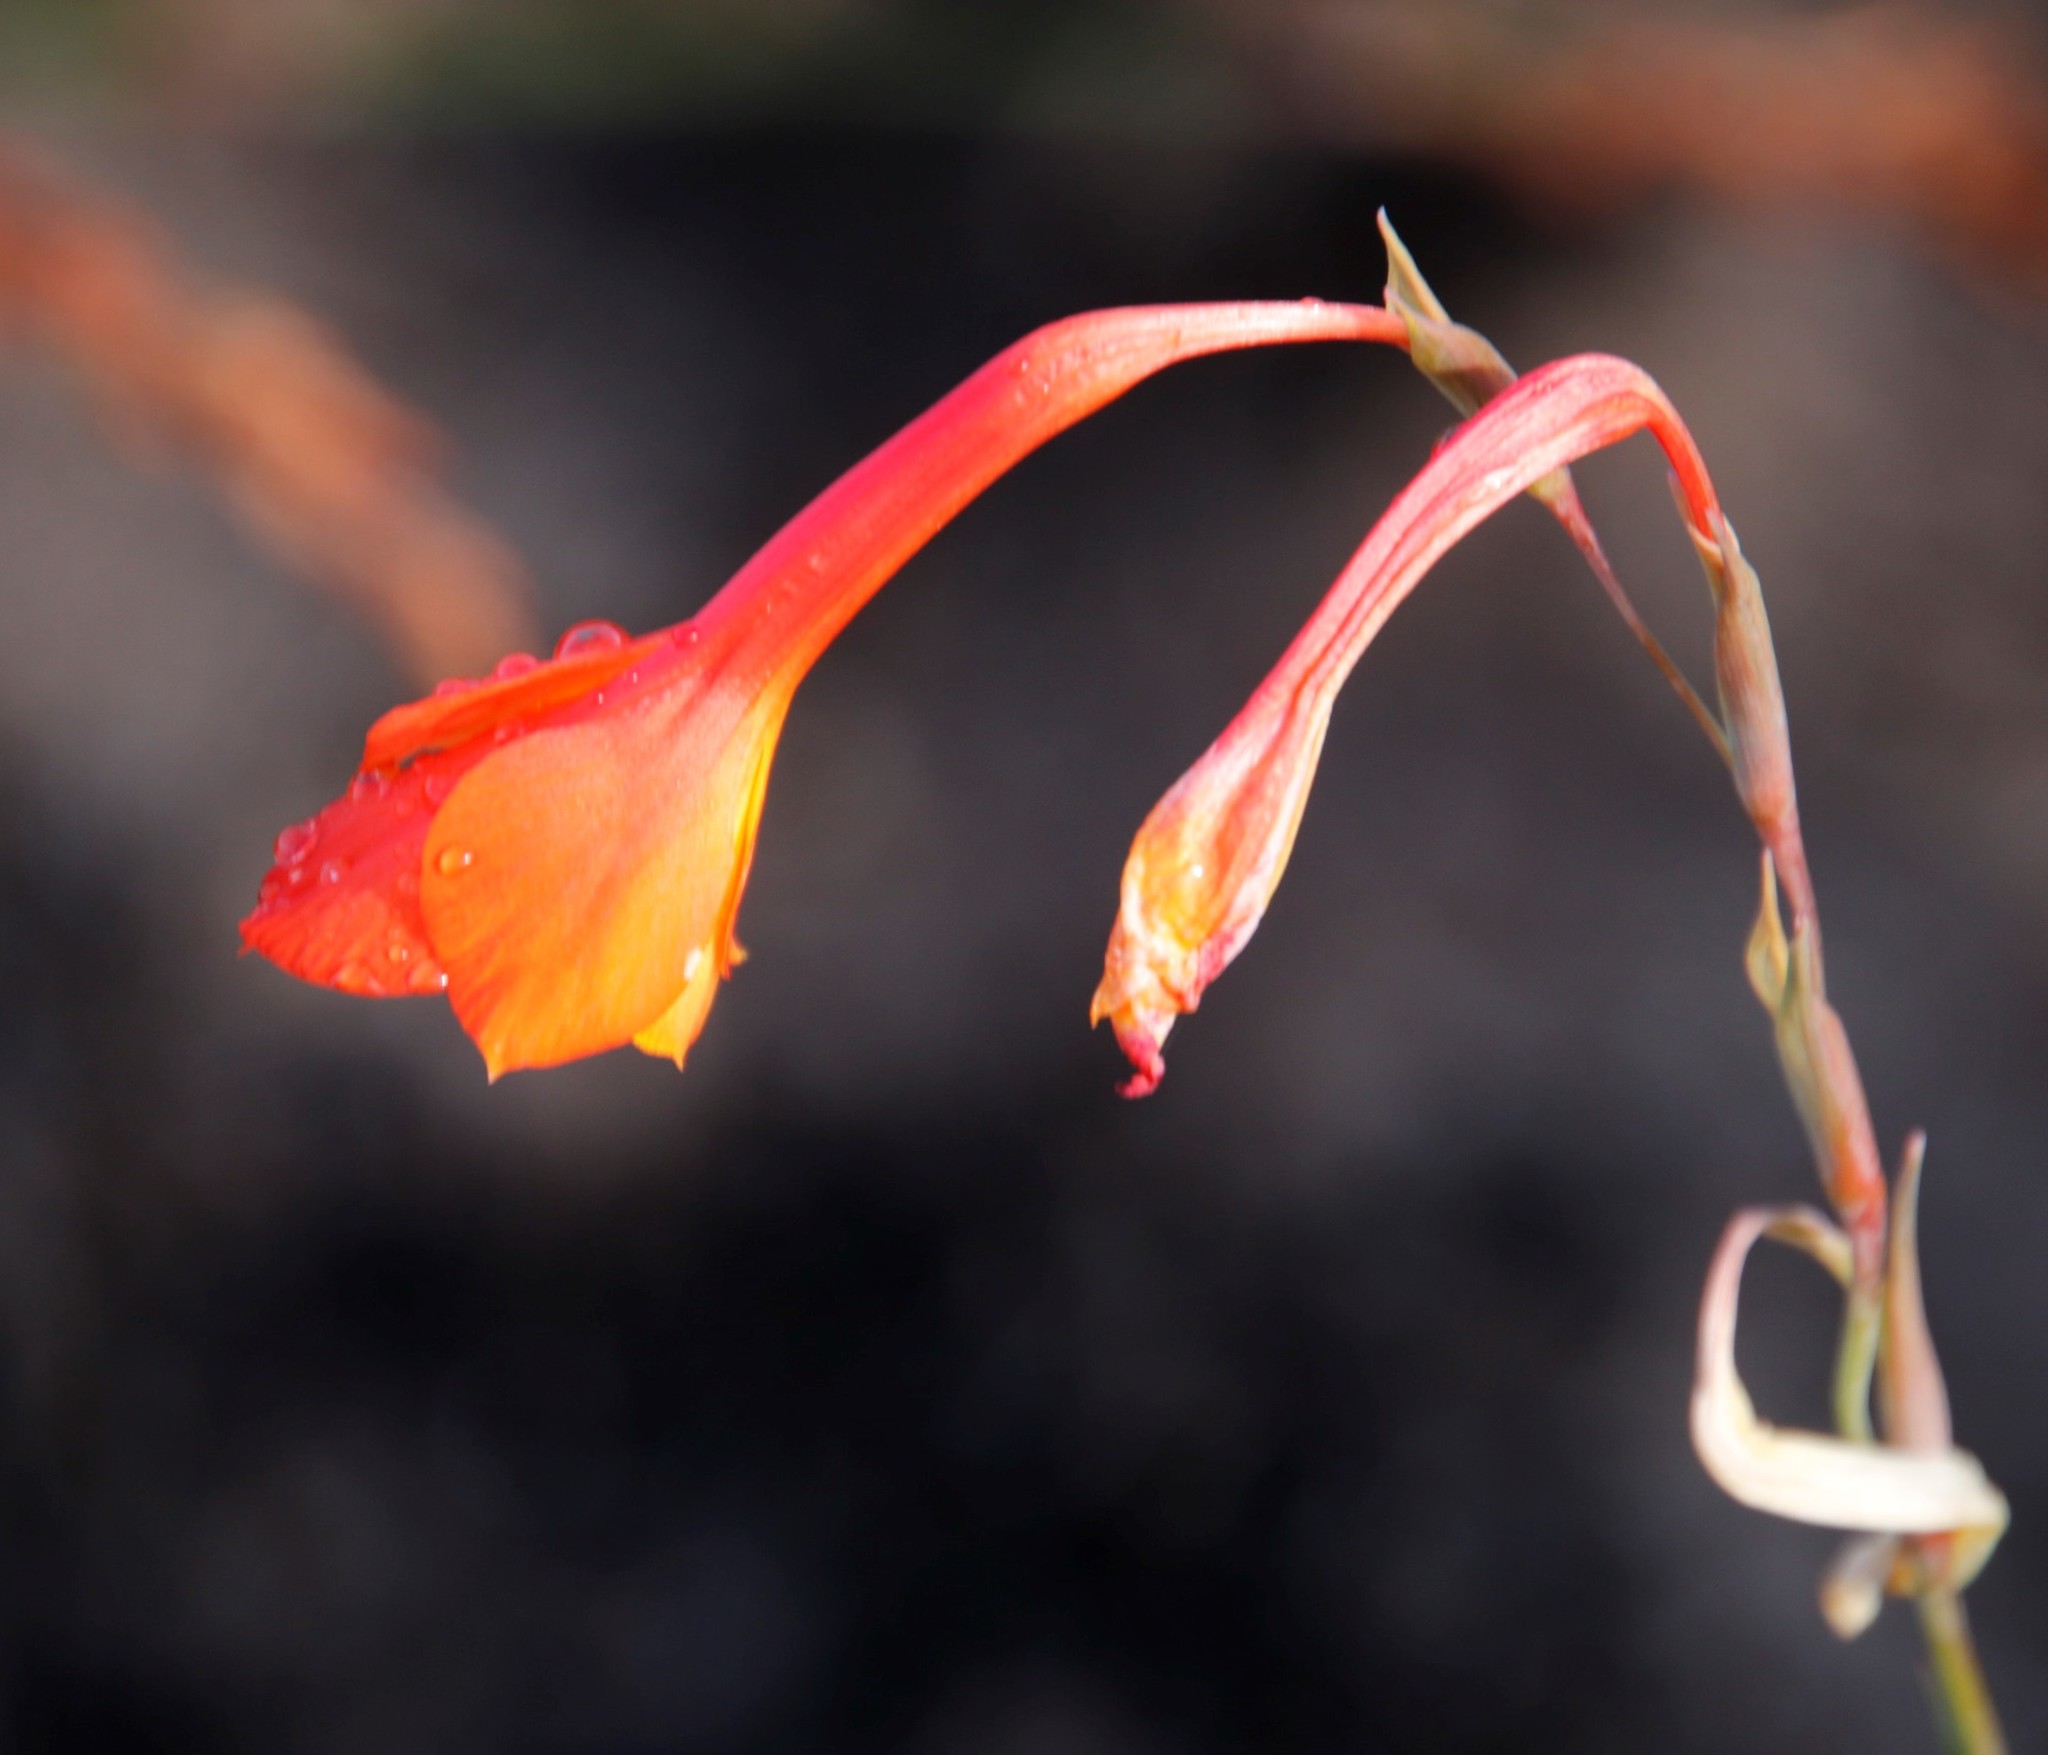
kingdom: Plantae
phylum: Tracheophyta
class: Liliopsida
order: Asparagales
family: Iridaceae
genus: Gladiolus
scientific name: Gladiolus merianellus
